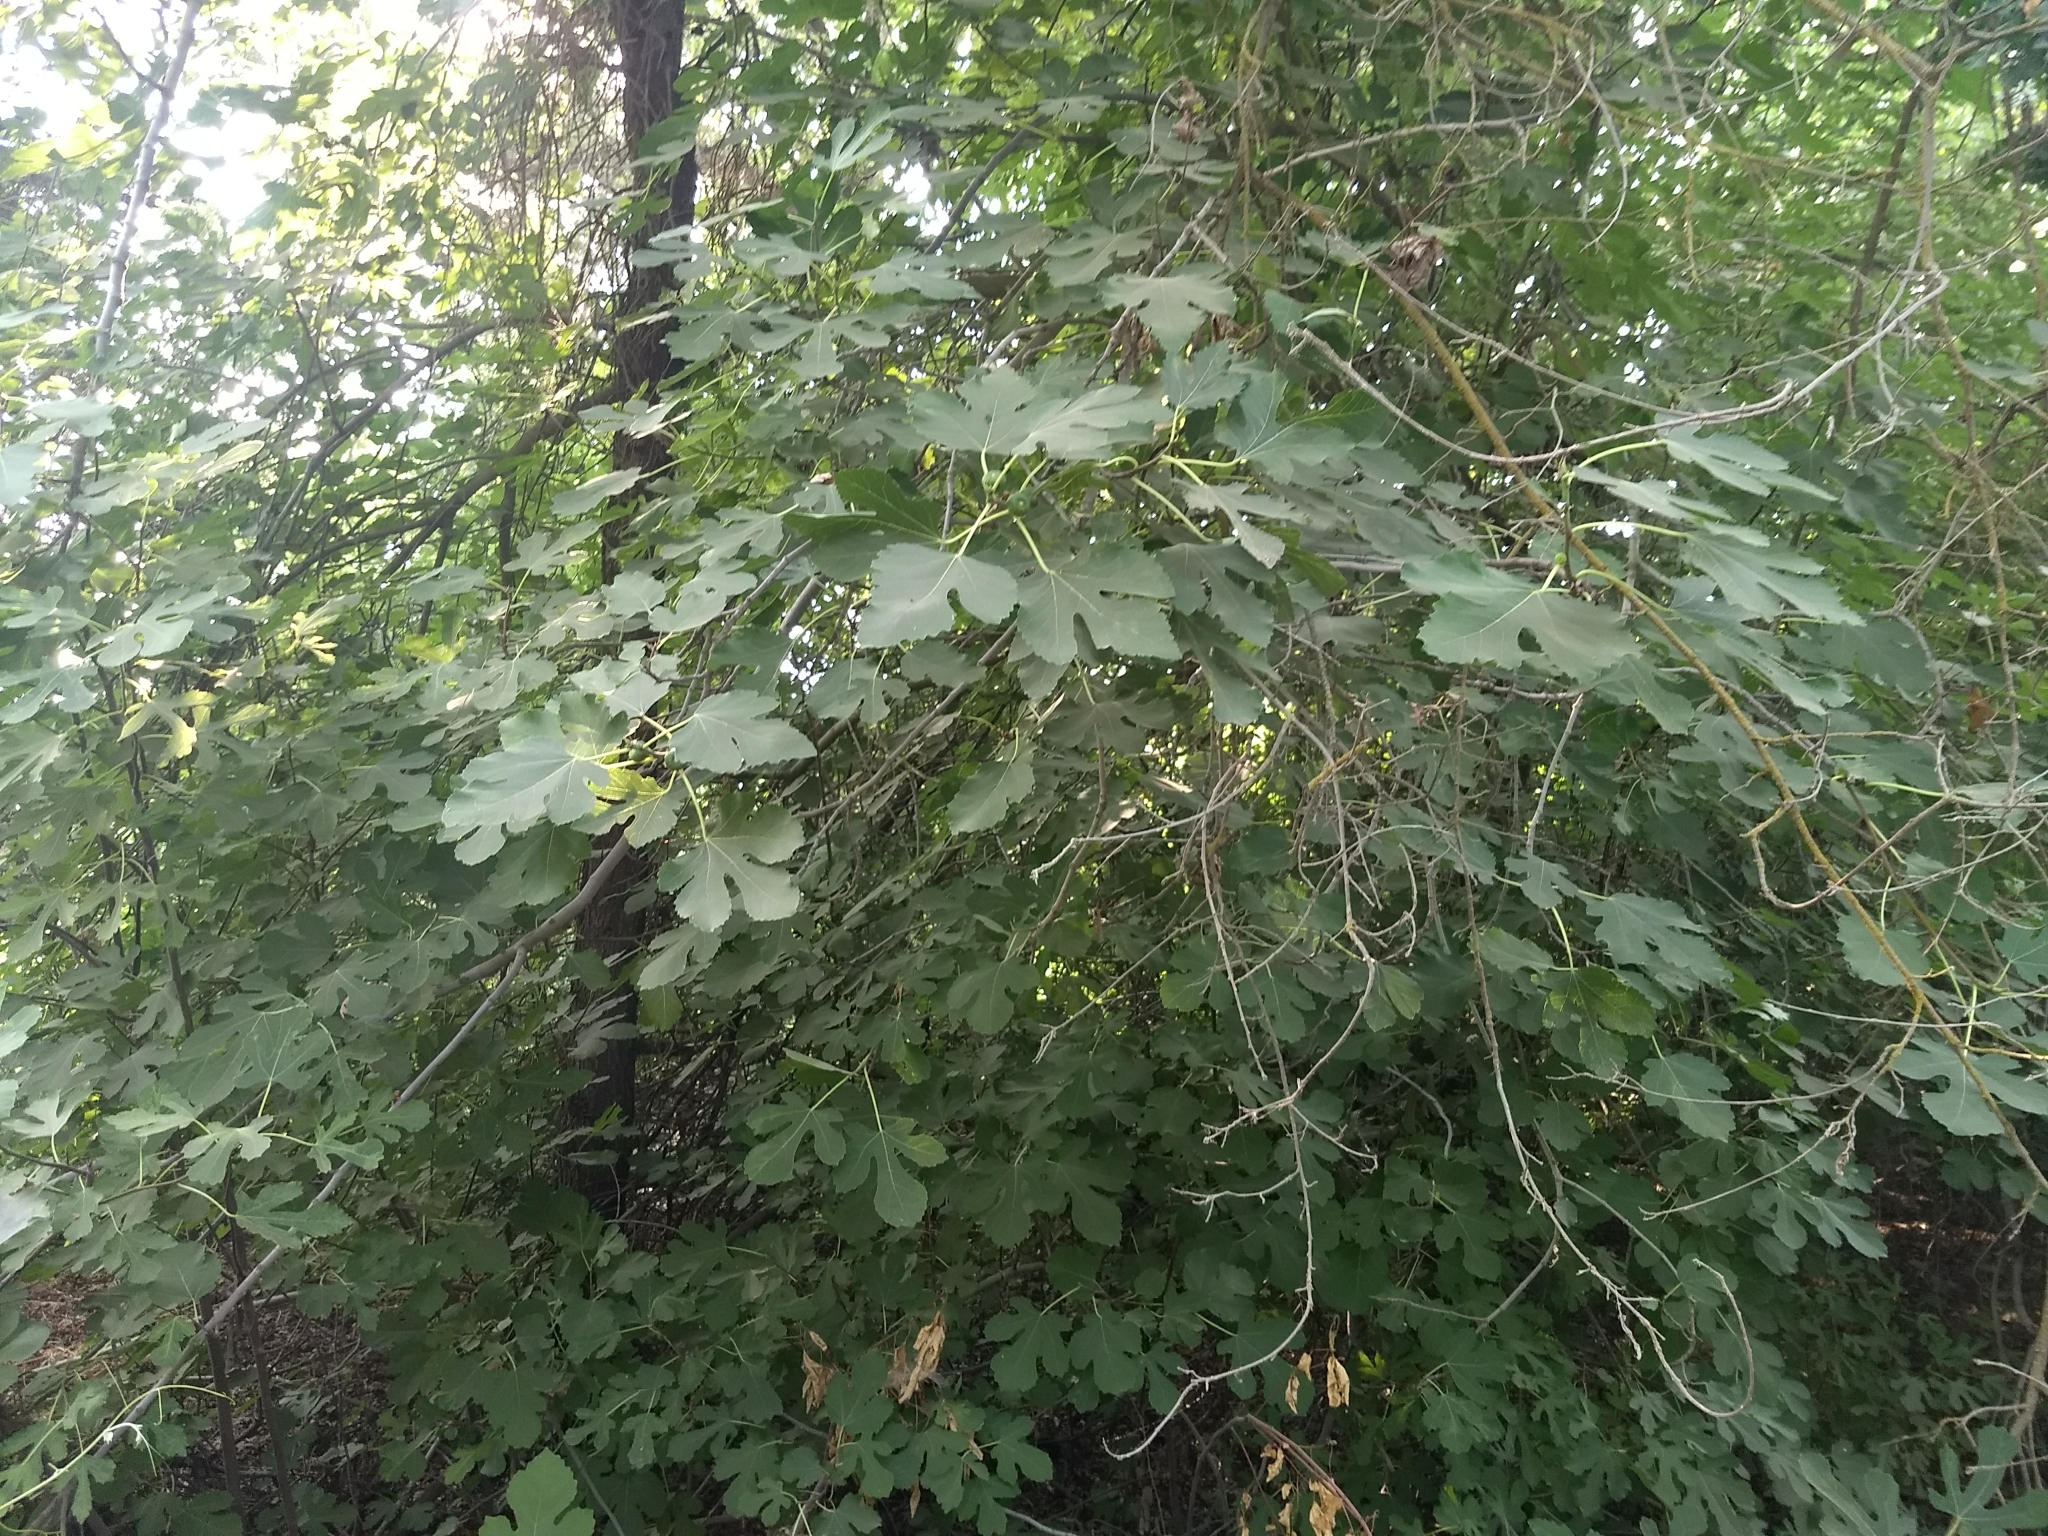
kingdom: Plantae
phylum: Tracheophyta
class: Magnoliopsida
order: Rosales
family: Moraceae
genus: Ficus
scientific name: Ficus carica
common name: Fig
